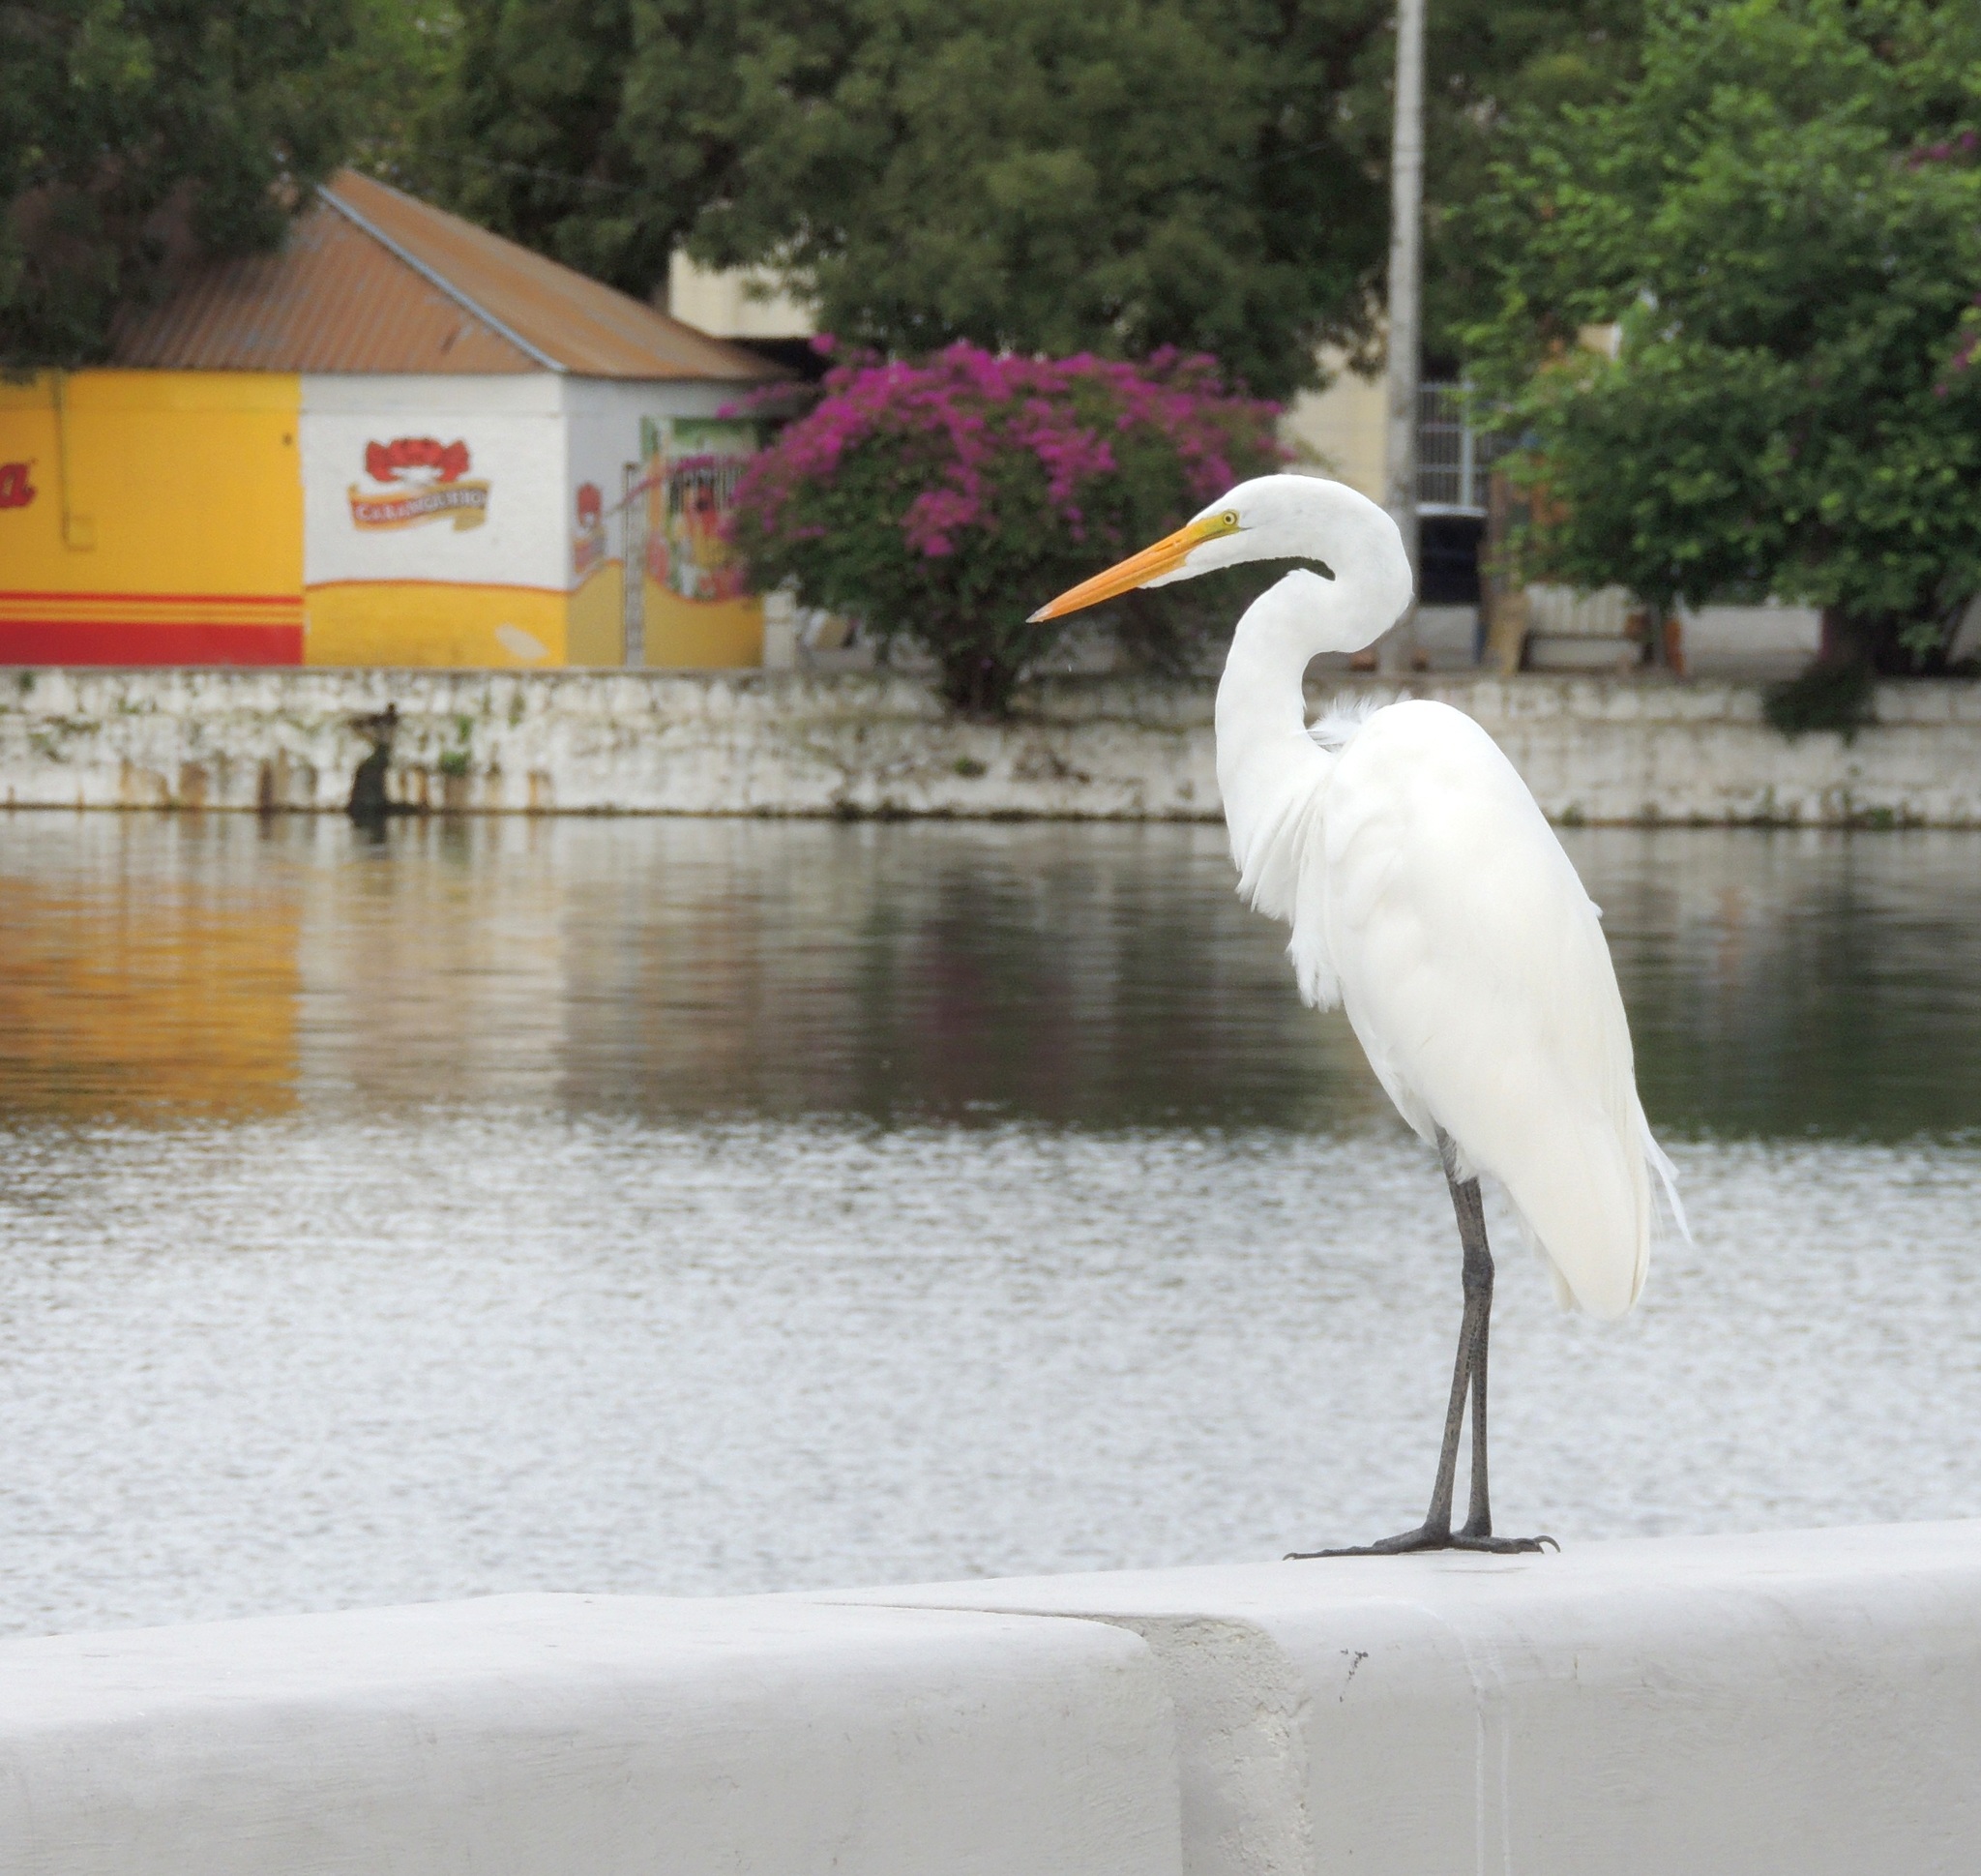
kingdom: Animalia
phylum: Chordata
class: Aves
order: Pelecaniformes
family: Ardeidae
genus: Ardea
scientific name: Ardea alba
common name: Great egret
